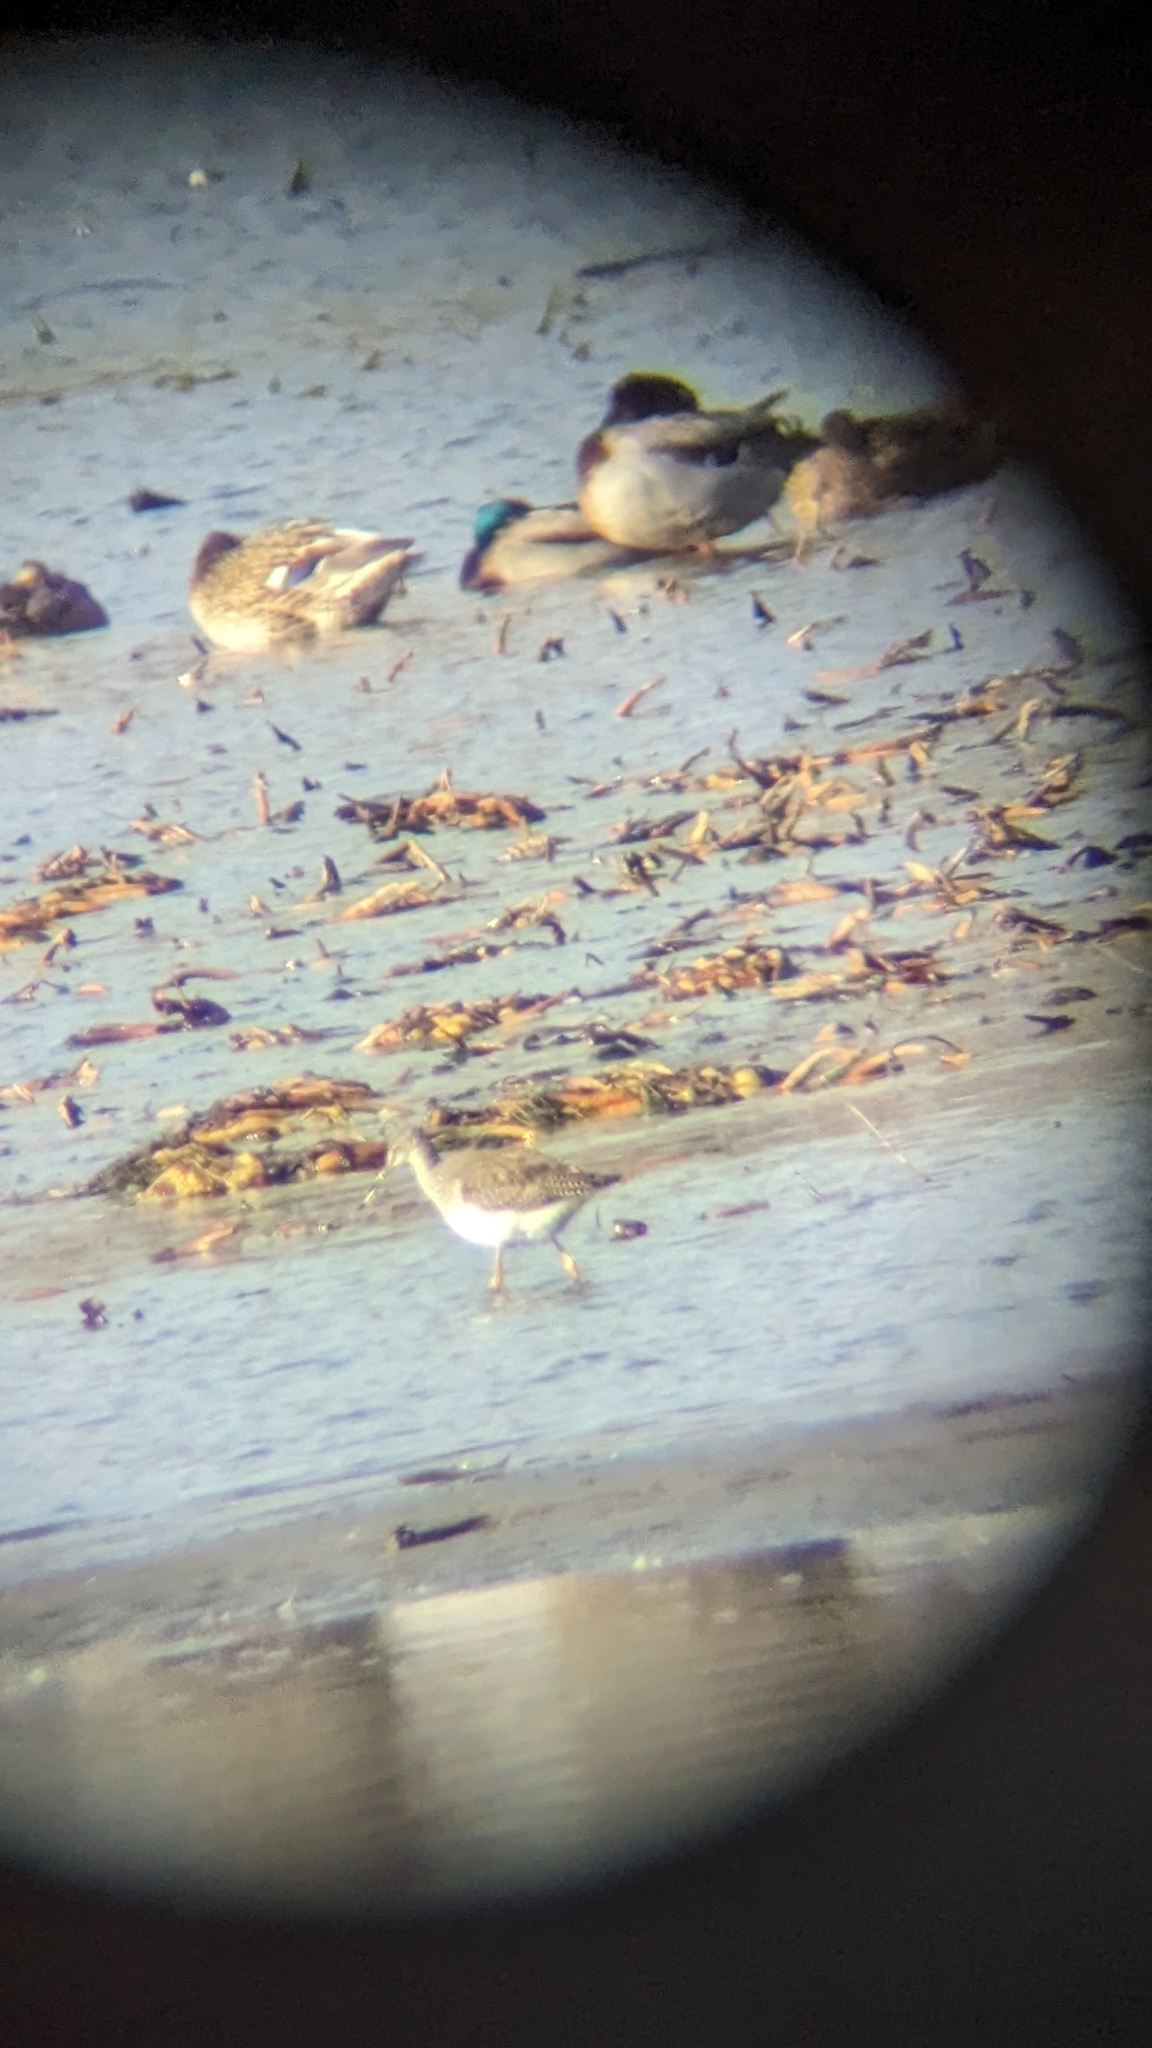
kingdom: Animalia
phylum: Chordata
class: Aves
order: Anseriformes
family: Anatidae
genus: Anas
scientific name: Anas platyrhynchos
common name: Mallard
